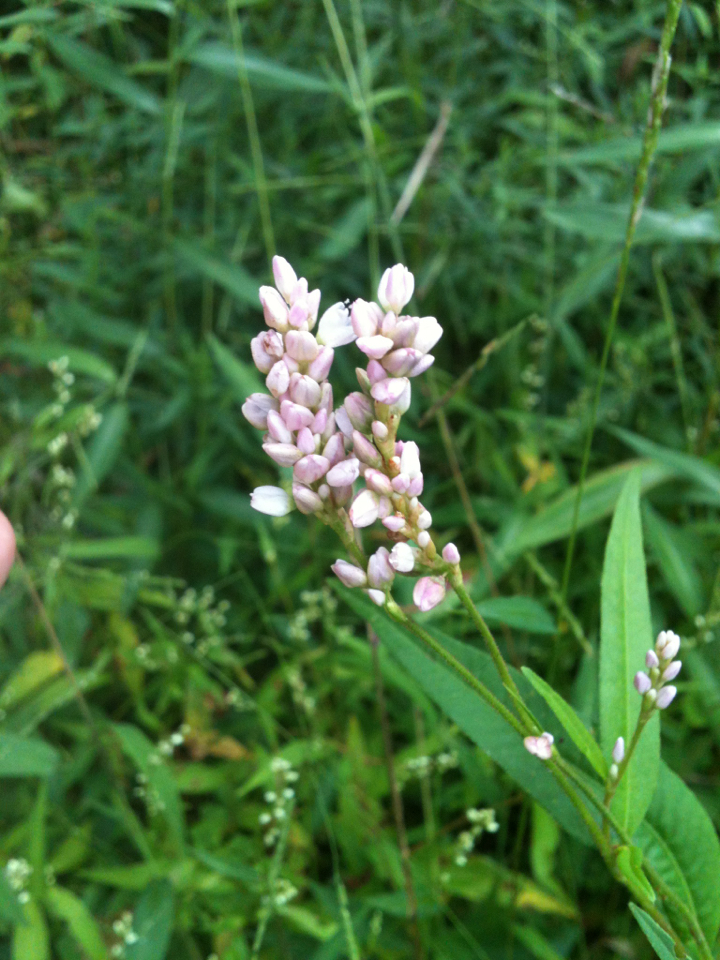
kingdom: Plantae
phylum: Tracheophyta
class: Magnoliopsida
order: Caryophyllales
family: Polygonaceae
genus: Persicaria
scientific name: Persicaria pensylvanica
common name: Pinkweed
